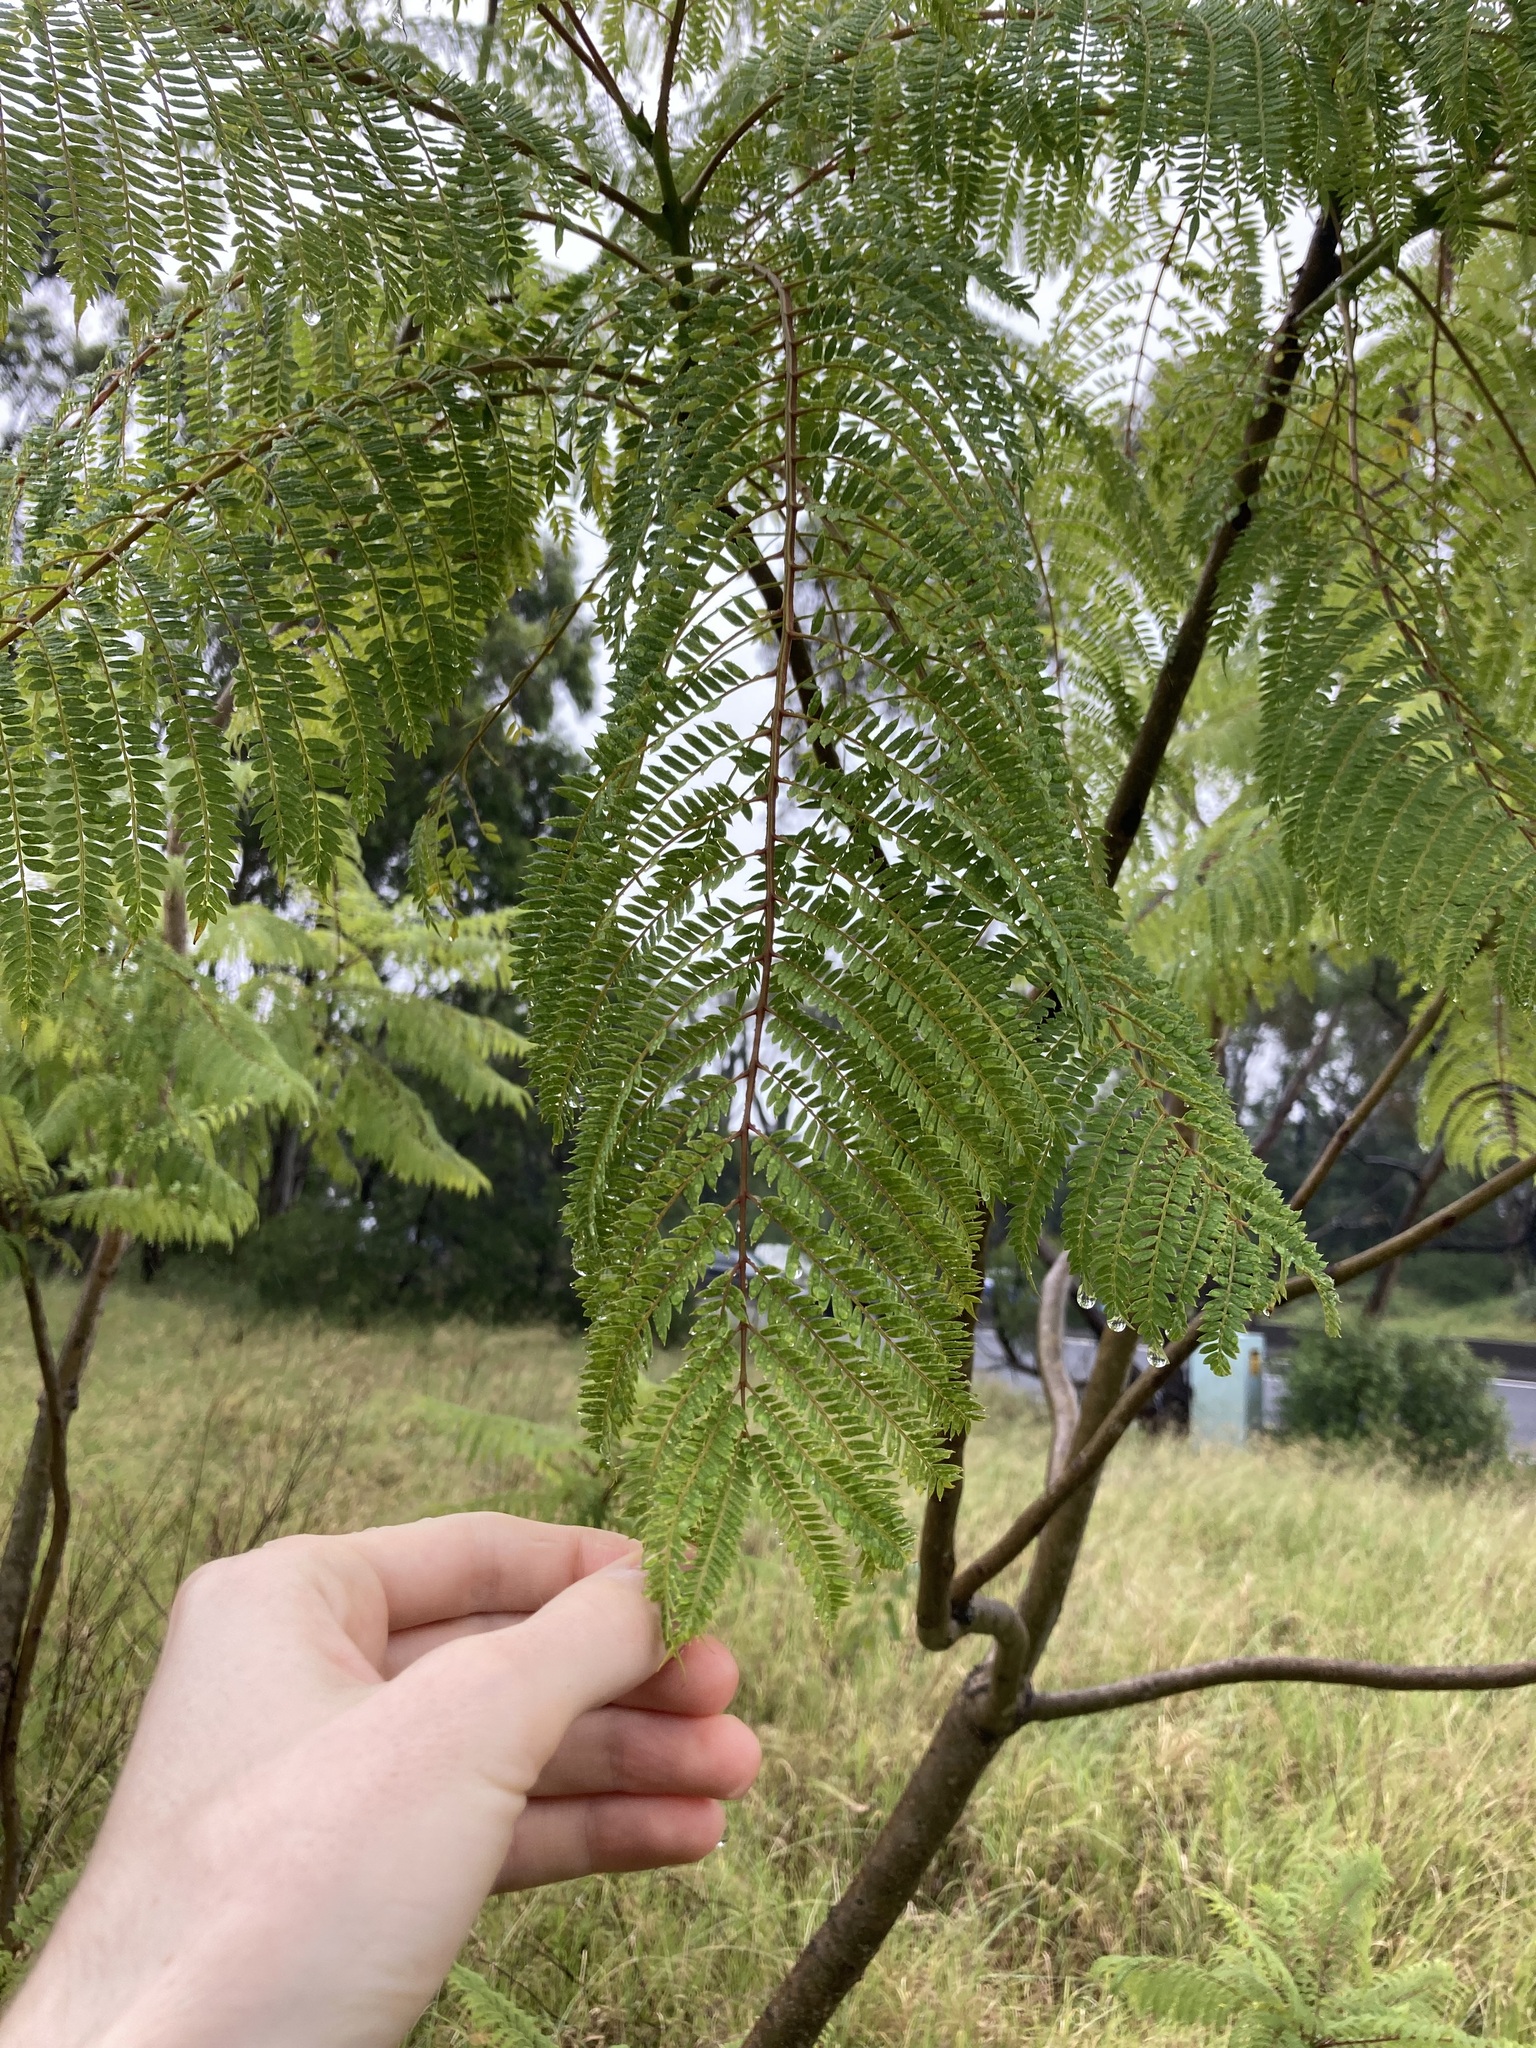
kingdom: Plantae
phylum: Tracheophyta
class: Magnoliopsida
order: Lamiales
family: Bignoniaceae
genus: Jacaranda
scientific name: Jacaranda mimosifolia
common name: Black poui
